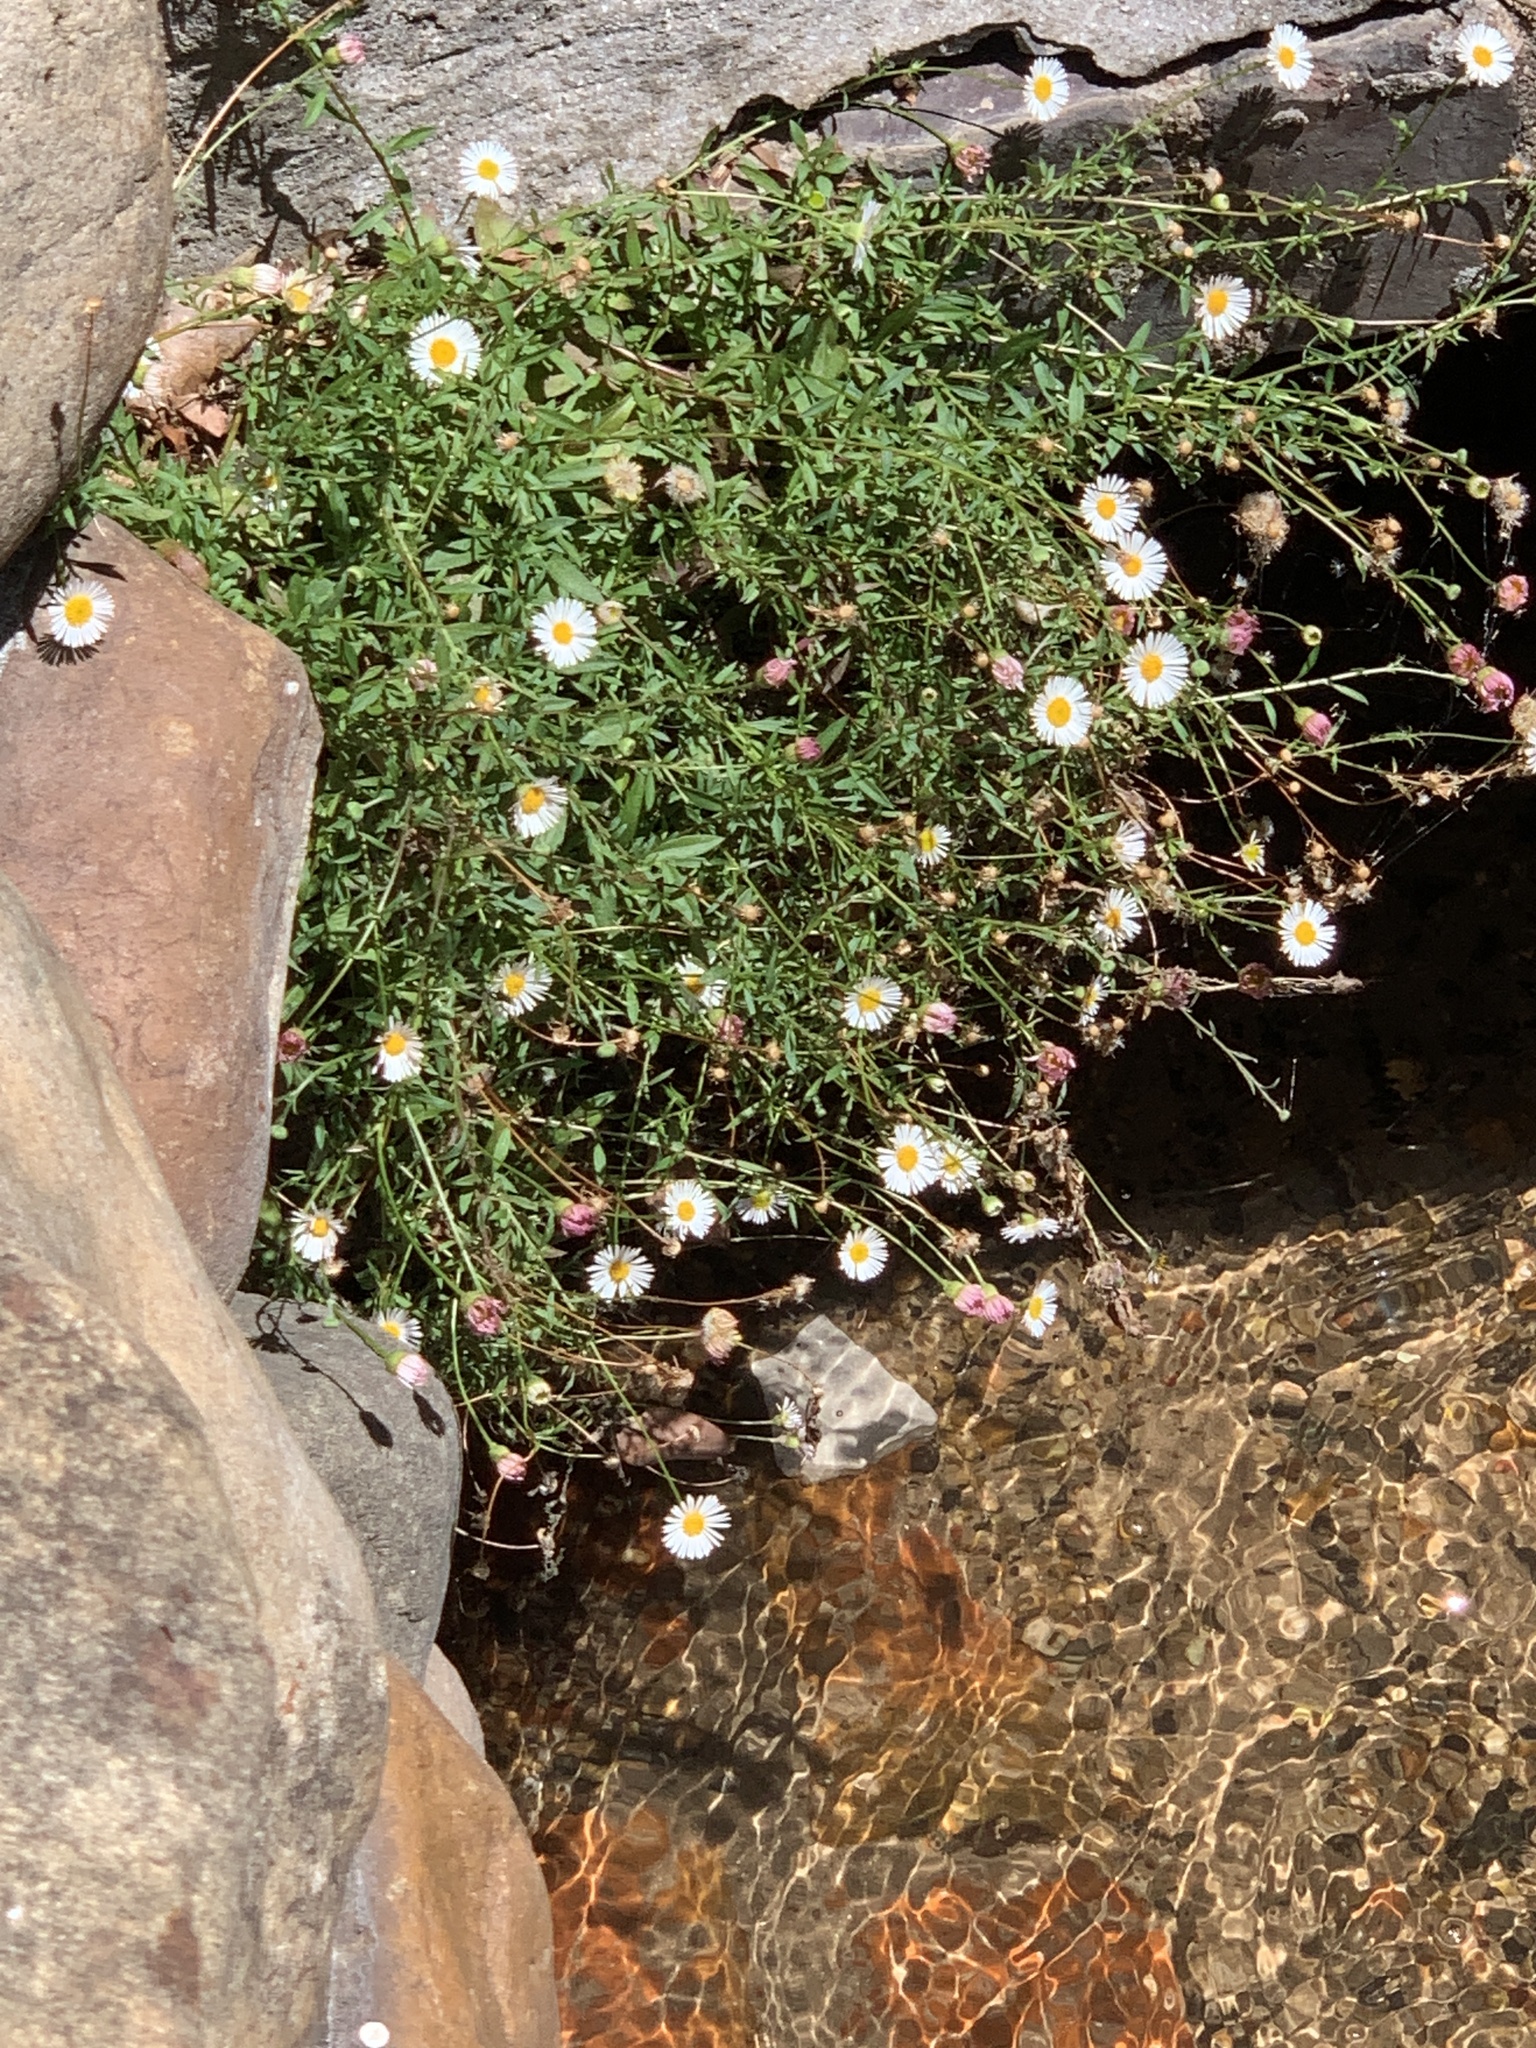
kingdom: Plantae
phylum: Tracheophyta
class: Magnoliopsida
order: Asterales
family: Asteraceae
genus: Erigeron
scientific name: Erigeron karvinskianus
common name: Mexican fleabane
